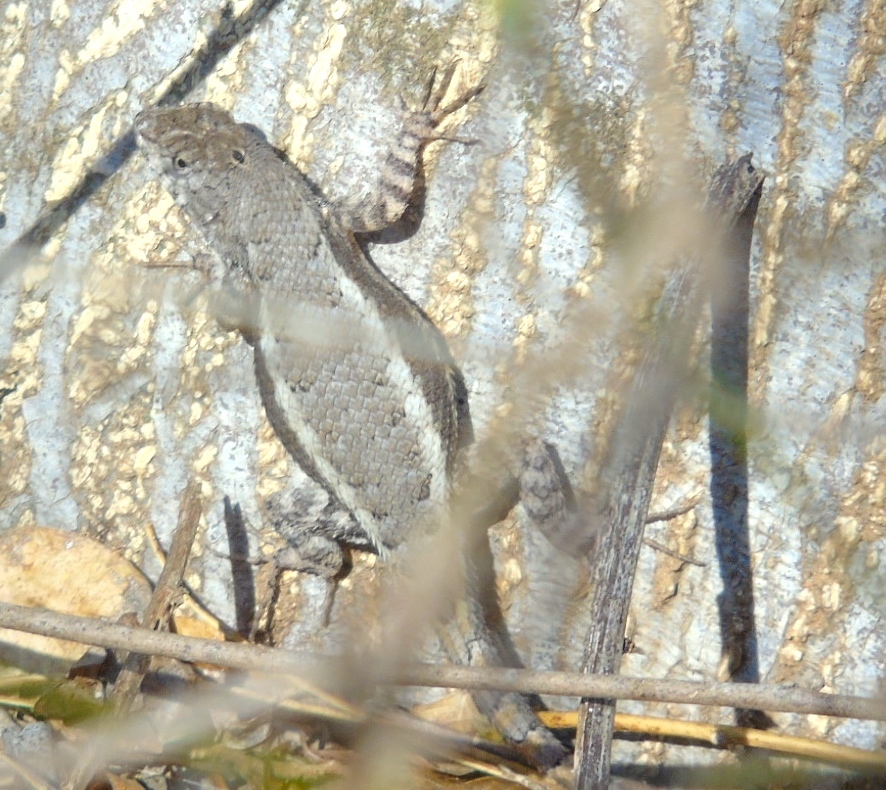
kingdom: Animalia
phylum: Chordata
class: Squamata
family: Phrynosomatidae
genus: Sceloporus
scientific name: Sceloporus nelsoni
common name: Nelson's spiny lizard
